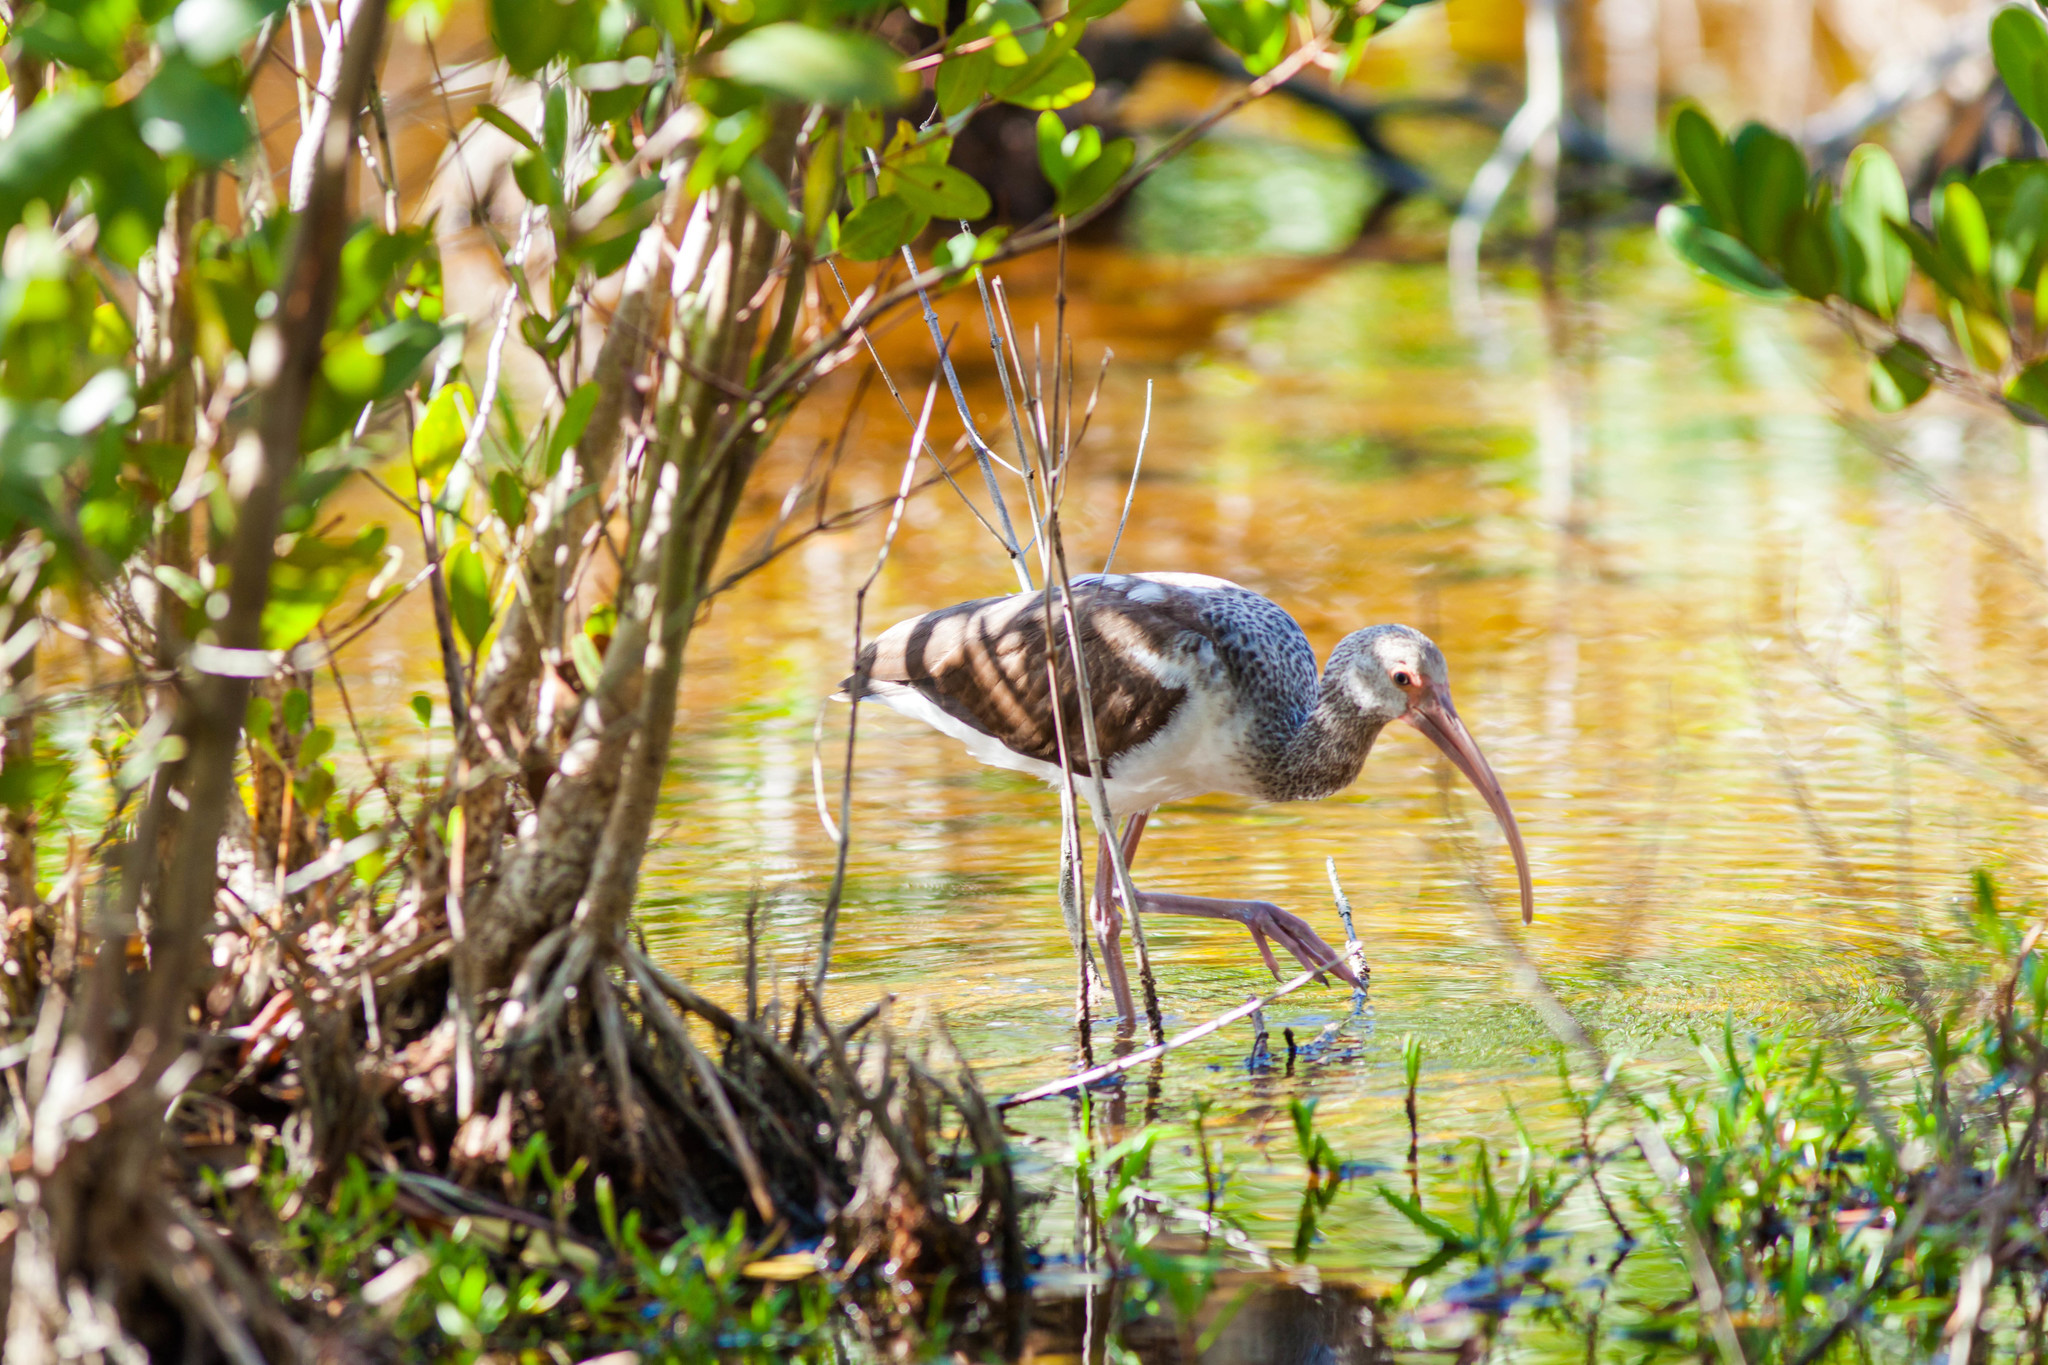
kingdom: Animalia
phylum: Chordata
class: Aves
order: Pelecaniformes
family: Threskiornithidae
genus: Eudocimus
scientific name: Eudocimus albus
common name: White ibis
